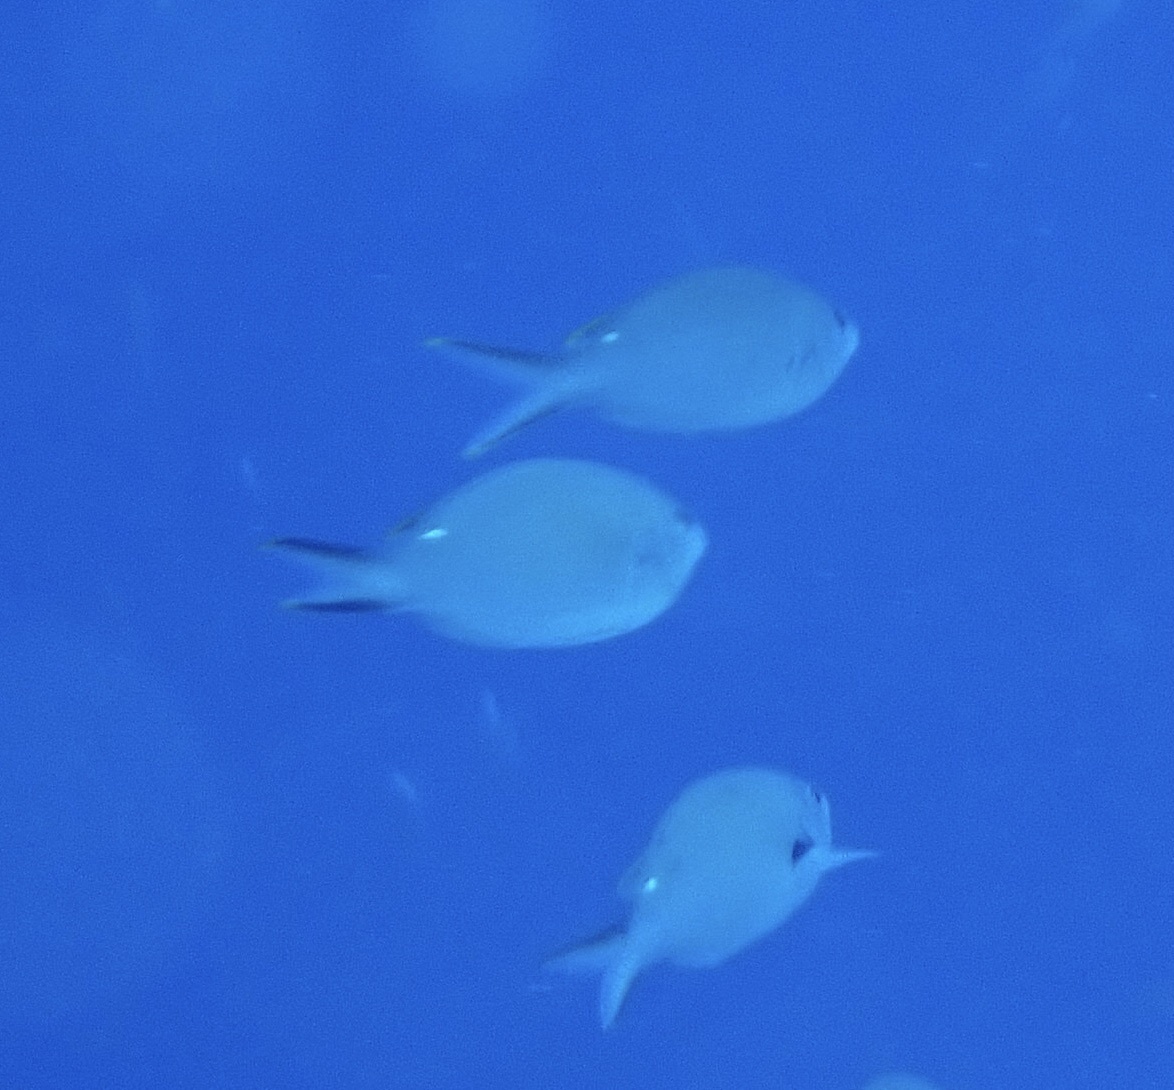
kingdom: Animalia
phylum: Chordata
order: Perciformes
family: Pomacentridae
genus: Chromis
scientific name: Chromis multilineata
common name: Brown chromis
